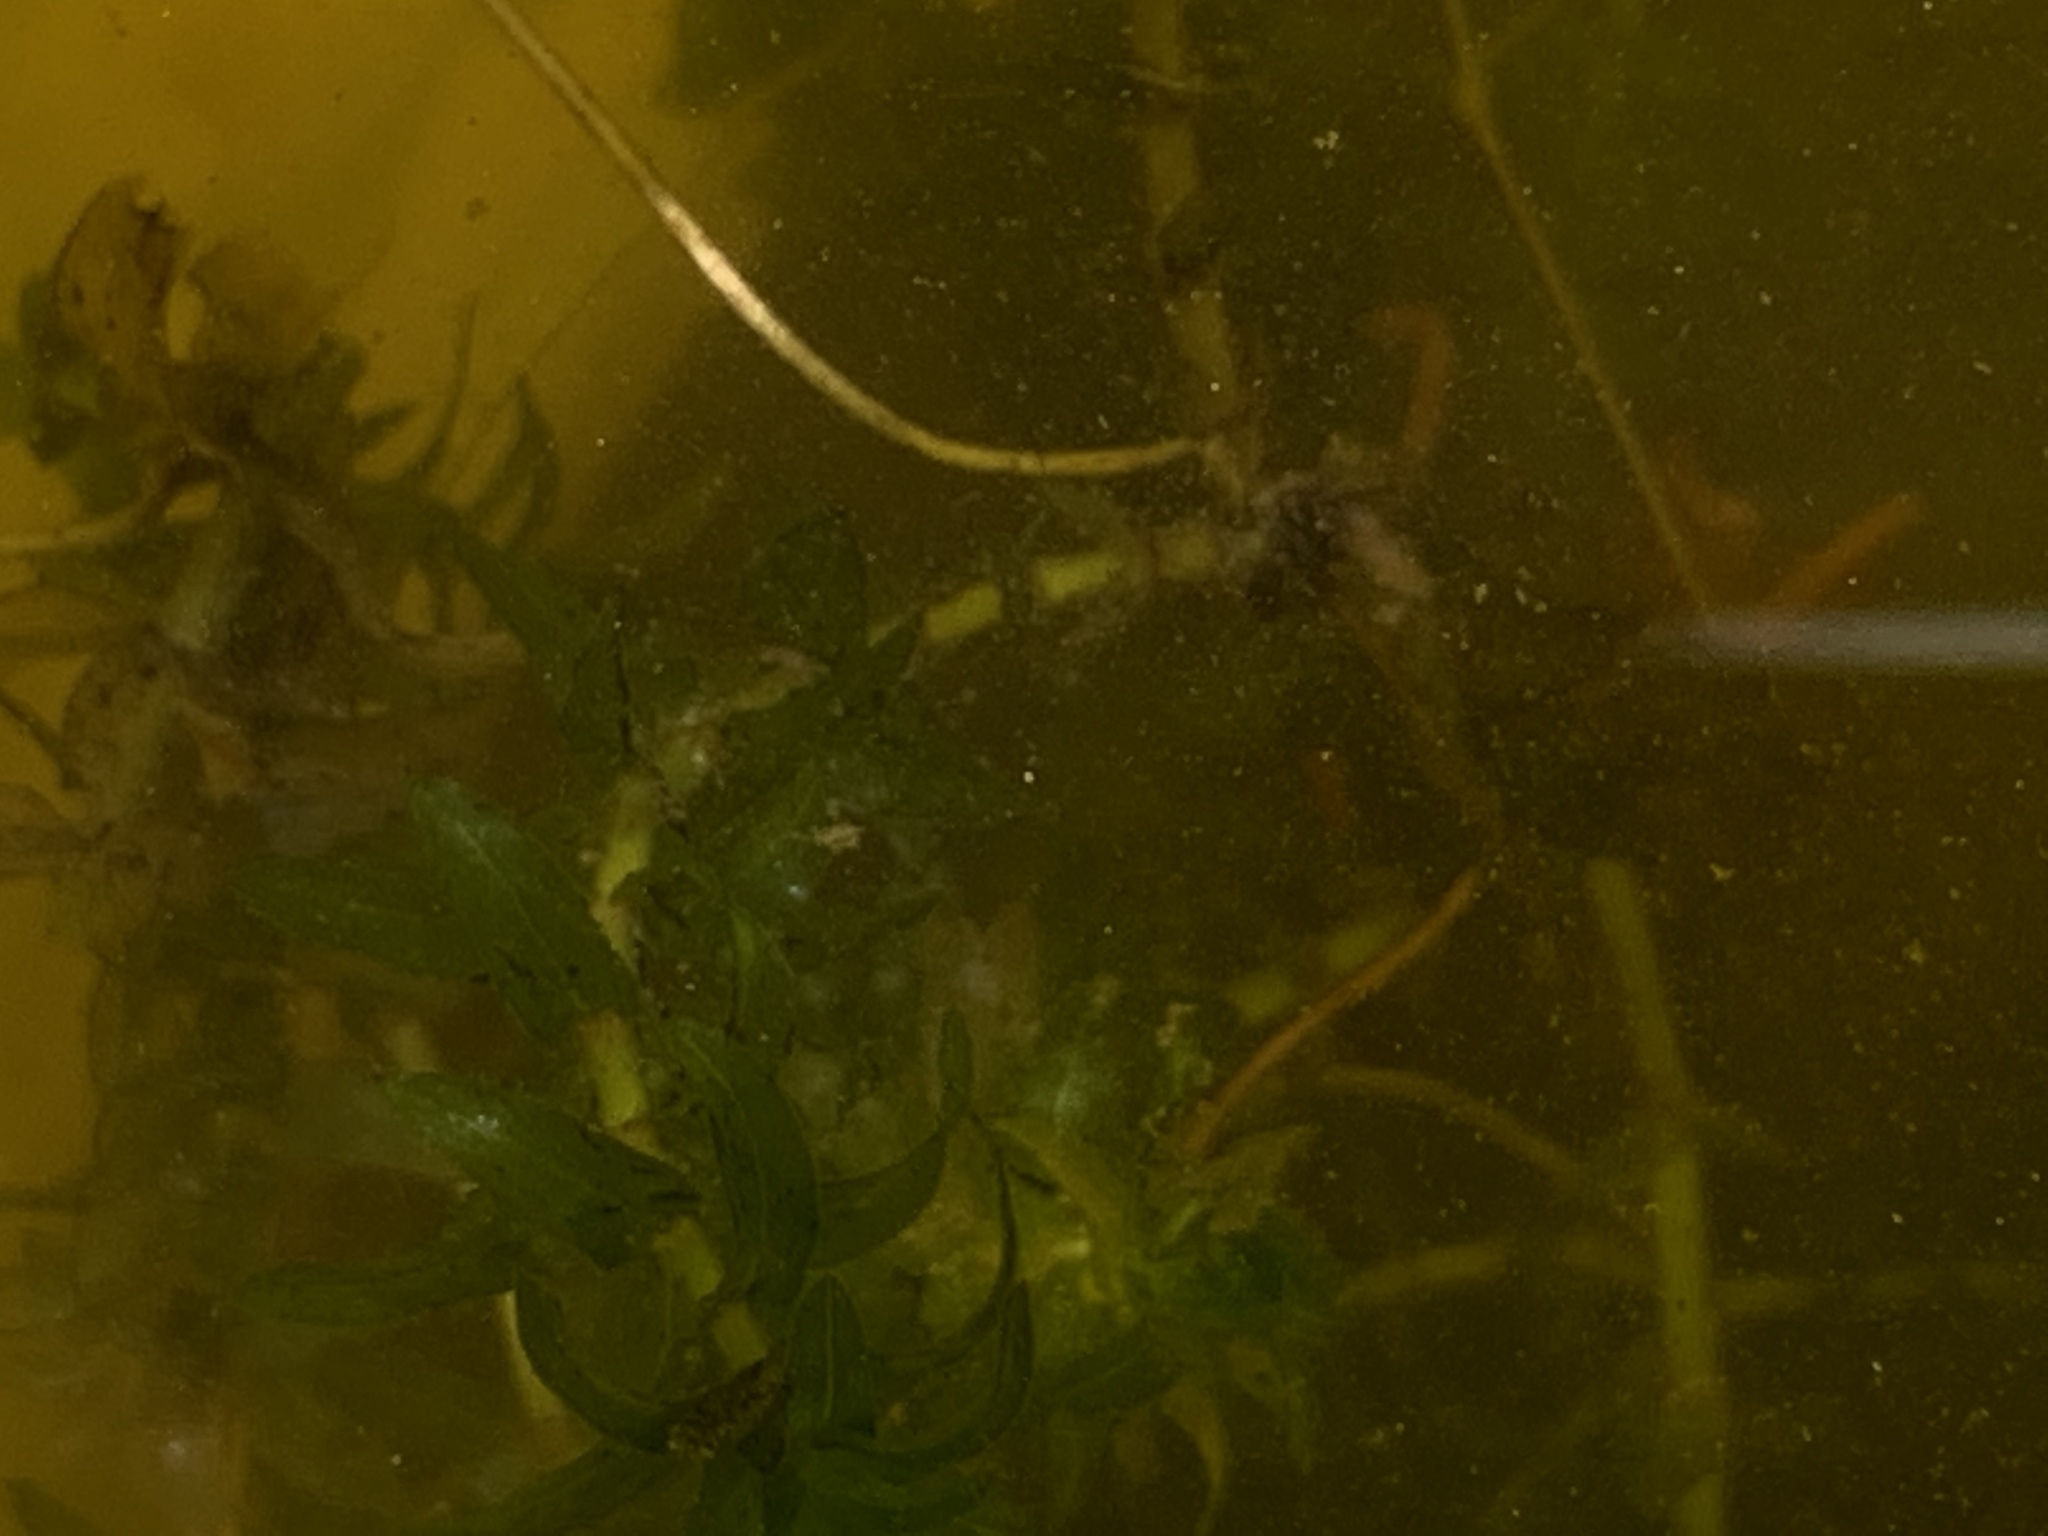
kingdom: Plantae
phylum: Tracheophyta
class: Liliopsida
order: Alismatales
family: Hydrocharitaceae
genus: Elodea
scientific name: Elodea canadensis
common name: Canadian waterweed
